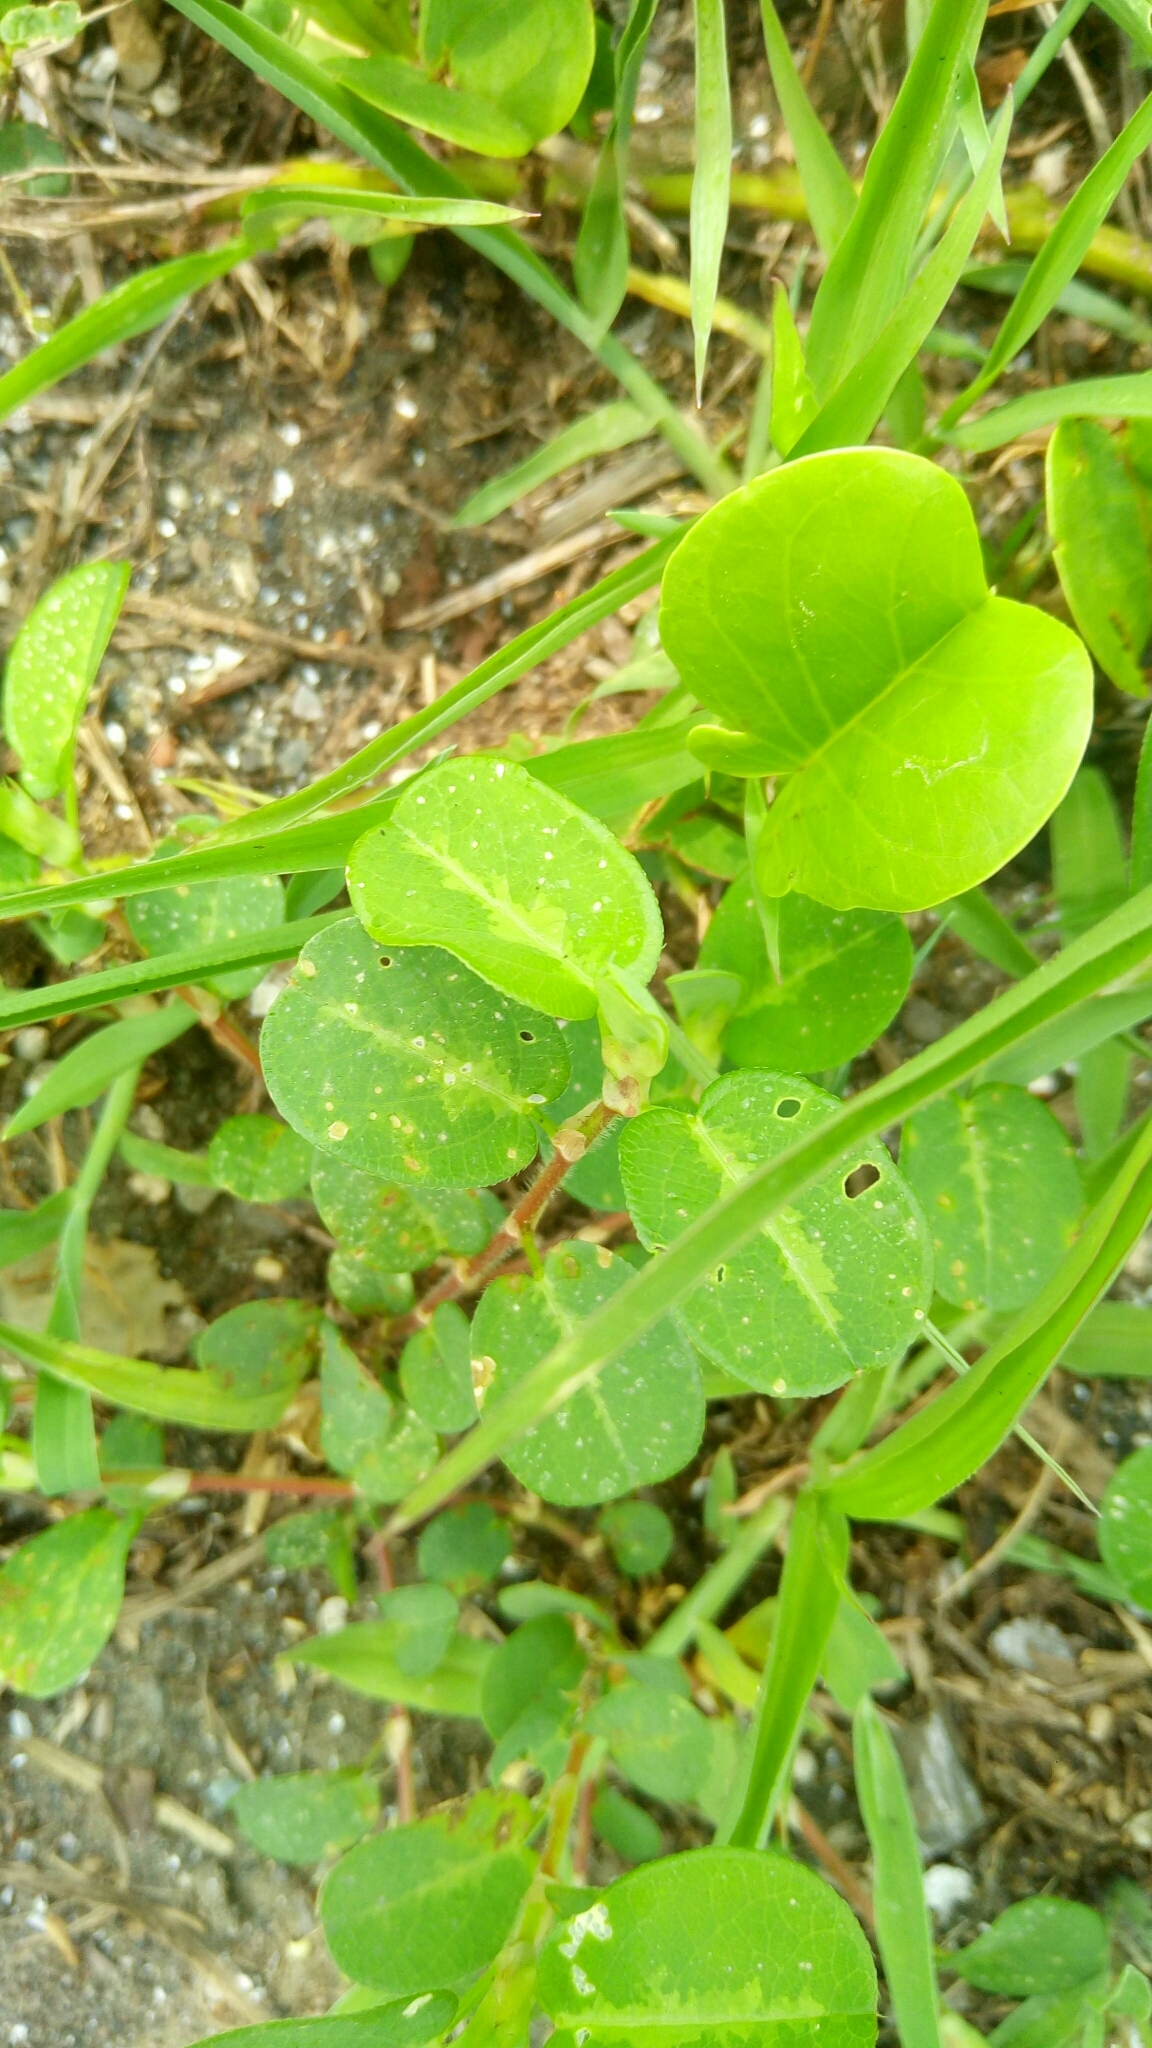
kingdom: Plantae
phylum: Tracheophyta
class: Magnoliopsida
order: Fabales
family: Fabaceae
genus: Alysicarpus
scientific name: Alysicarpus ovalifolius
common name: Alyce clover
